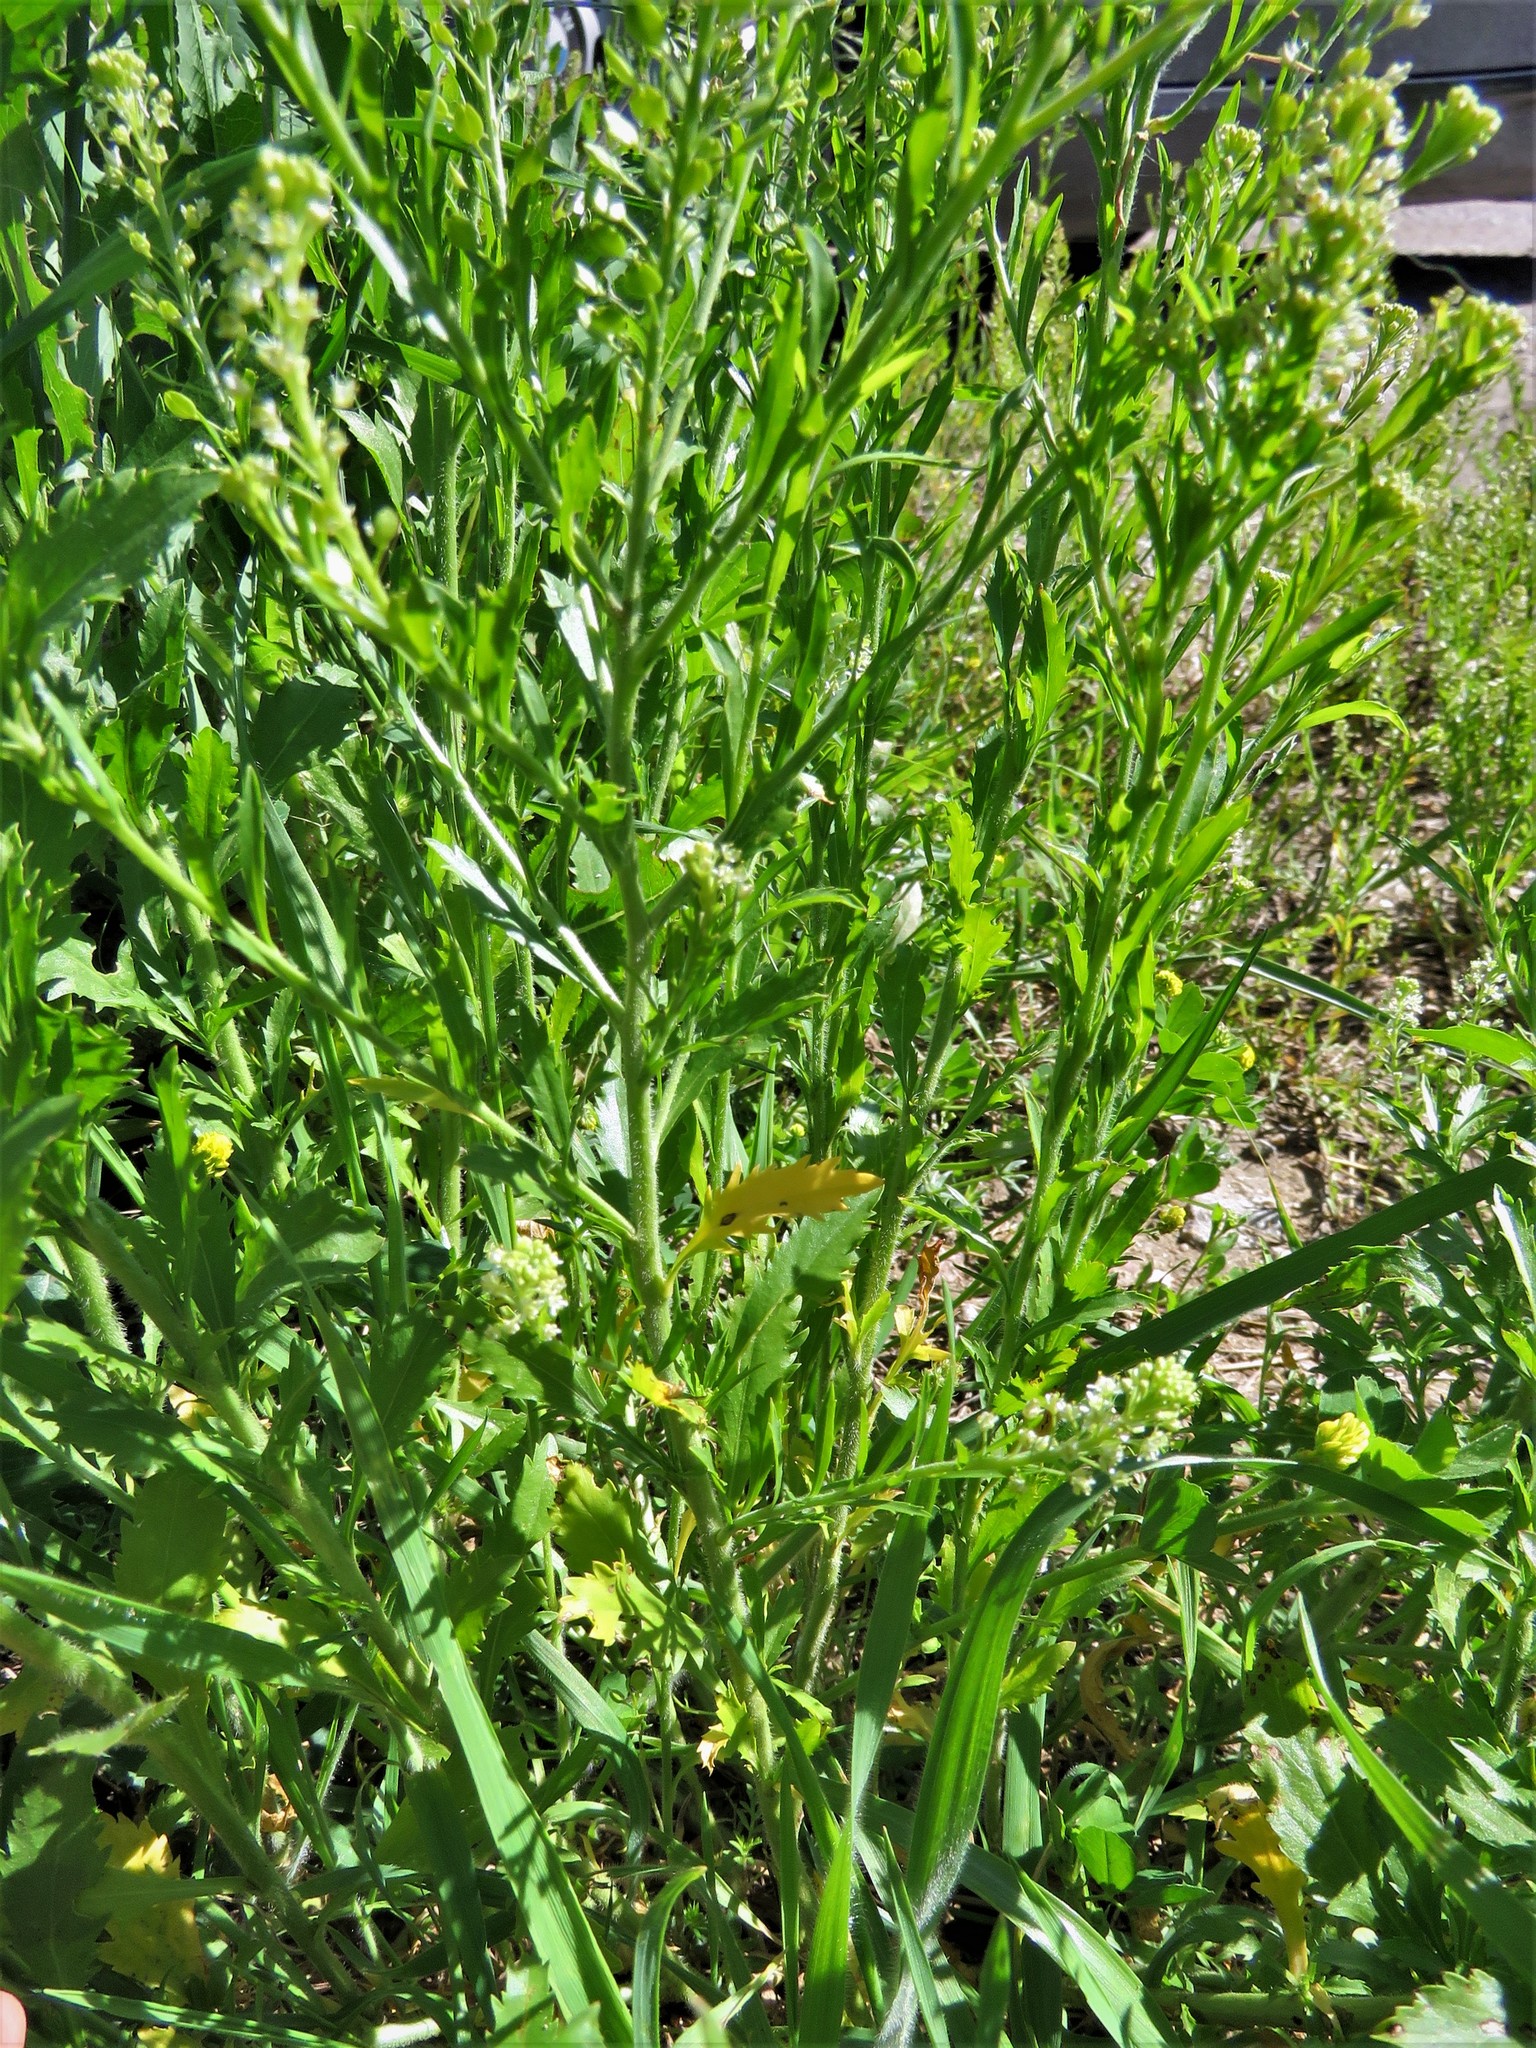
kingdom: Plantae
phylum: Tracheophyta
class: Magnoliopsida
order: Brassicales
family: Brassicaceae
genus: Lepidium
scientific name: Lepidium virginicum
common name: Least pepperwort
